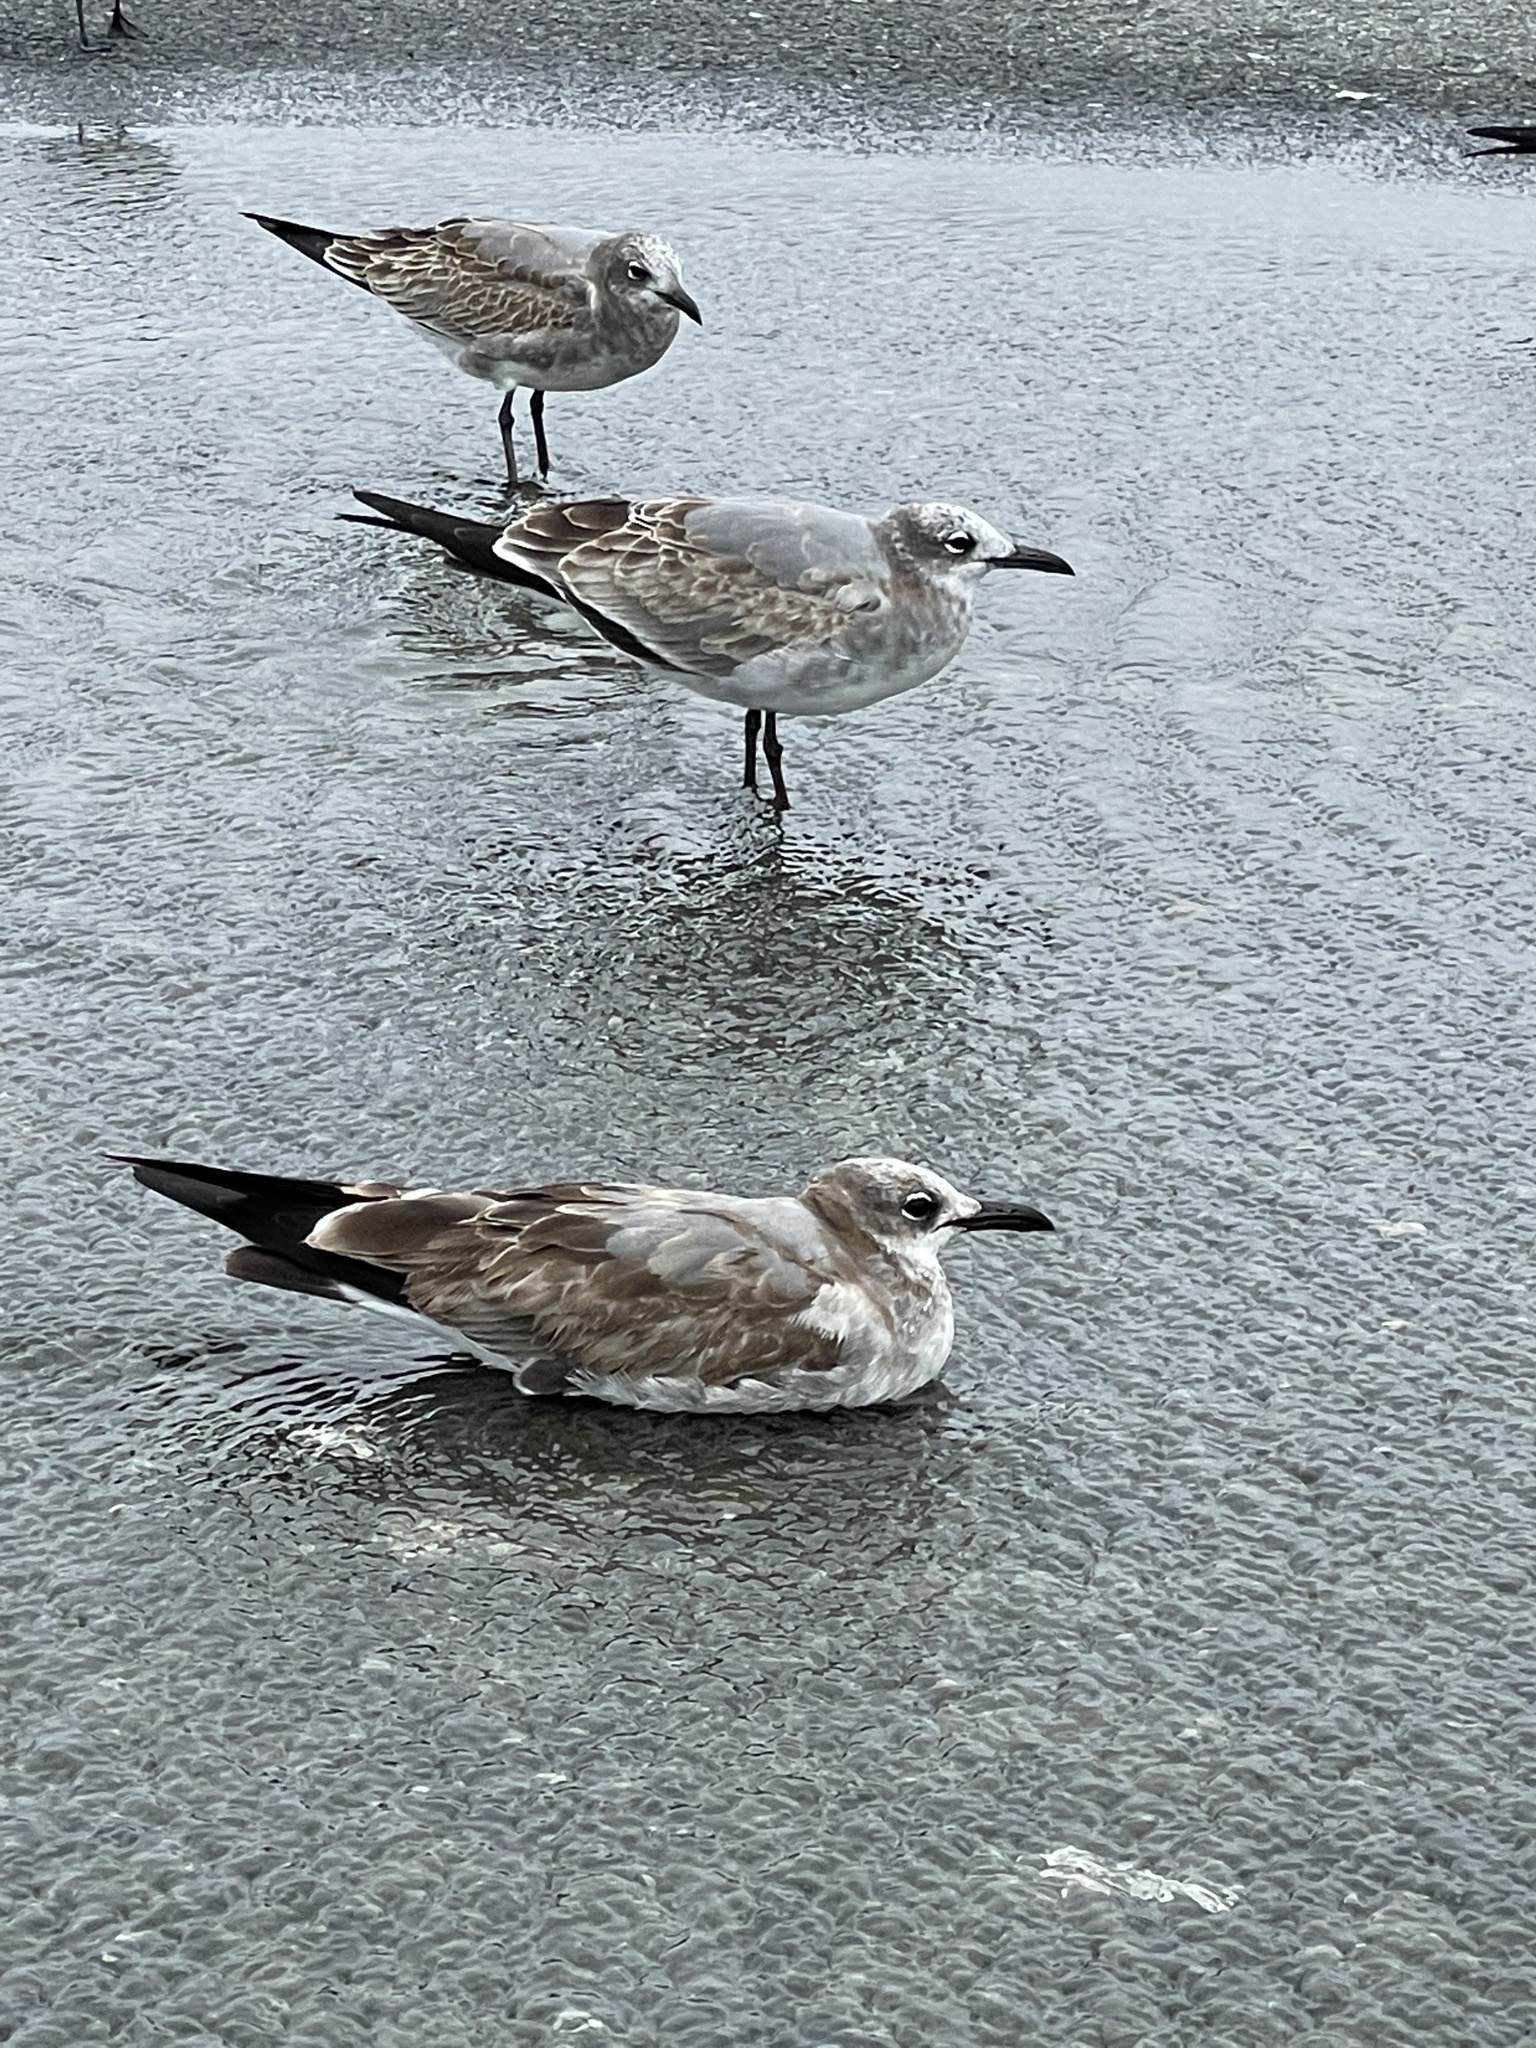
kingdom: Animalia
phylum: Chordata
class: Aves
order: Charadriiformes
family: Laridae
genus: Leucophaeus
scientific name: Leucophaeus atricilla
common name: Laughing gull
